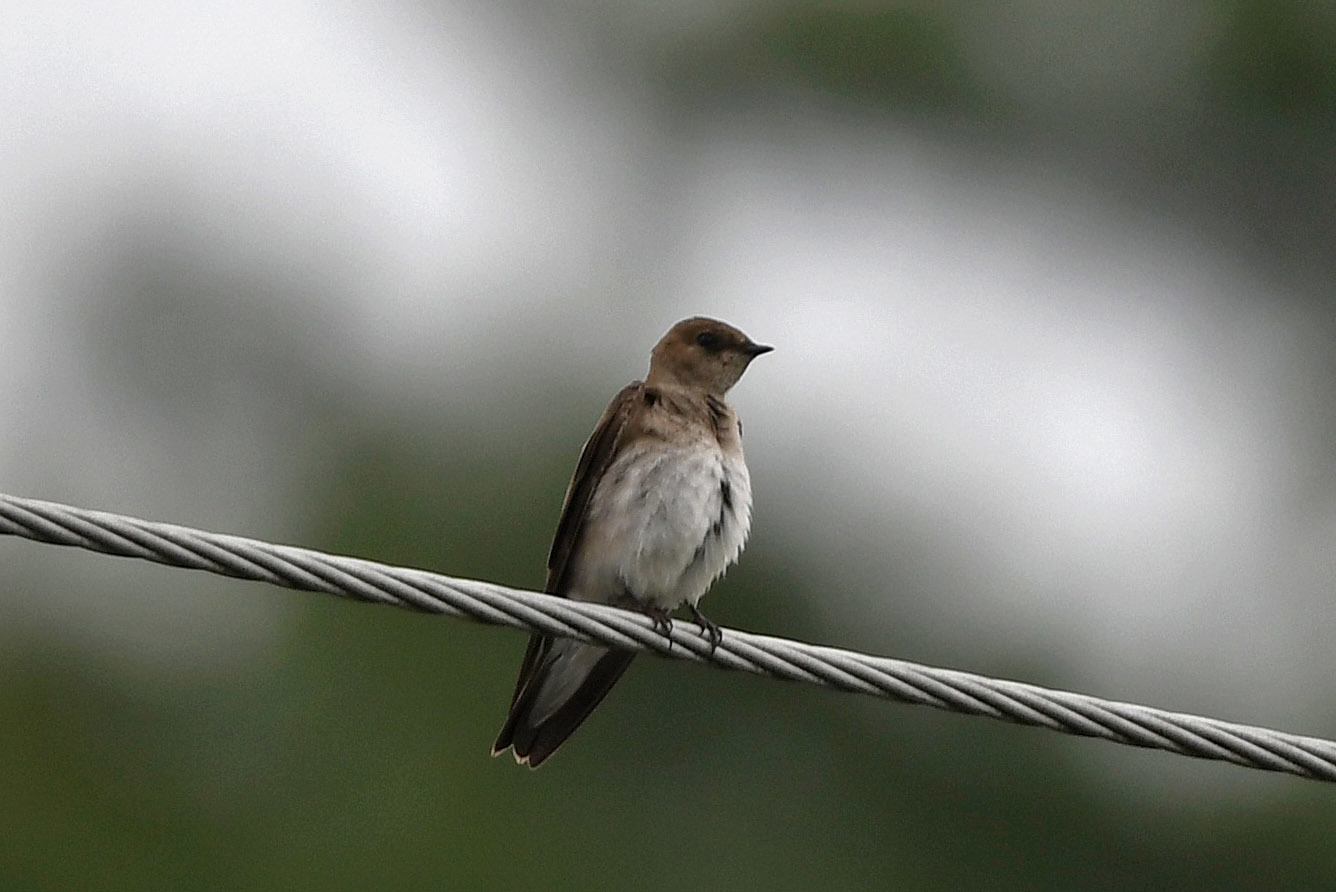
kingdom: Animalia
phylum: Chordata
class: Aves
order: Passeriformes
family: Hirundinidae
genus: Stelgidopteryx
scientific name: Stelgidopteryx serripennis
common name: Northern rough-winged swallow
